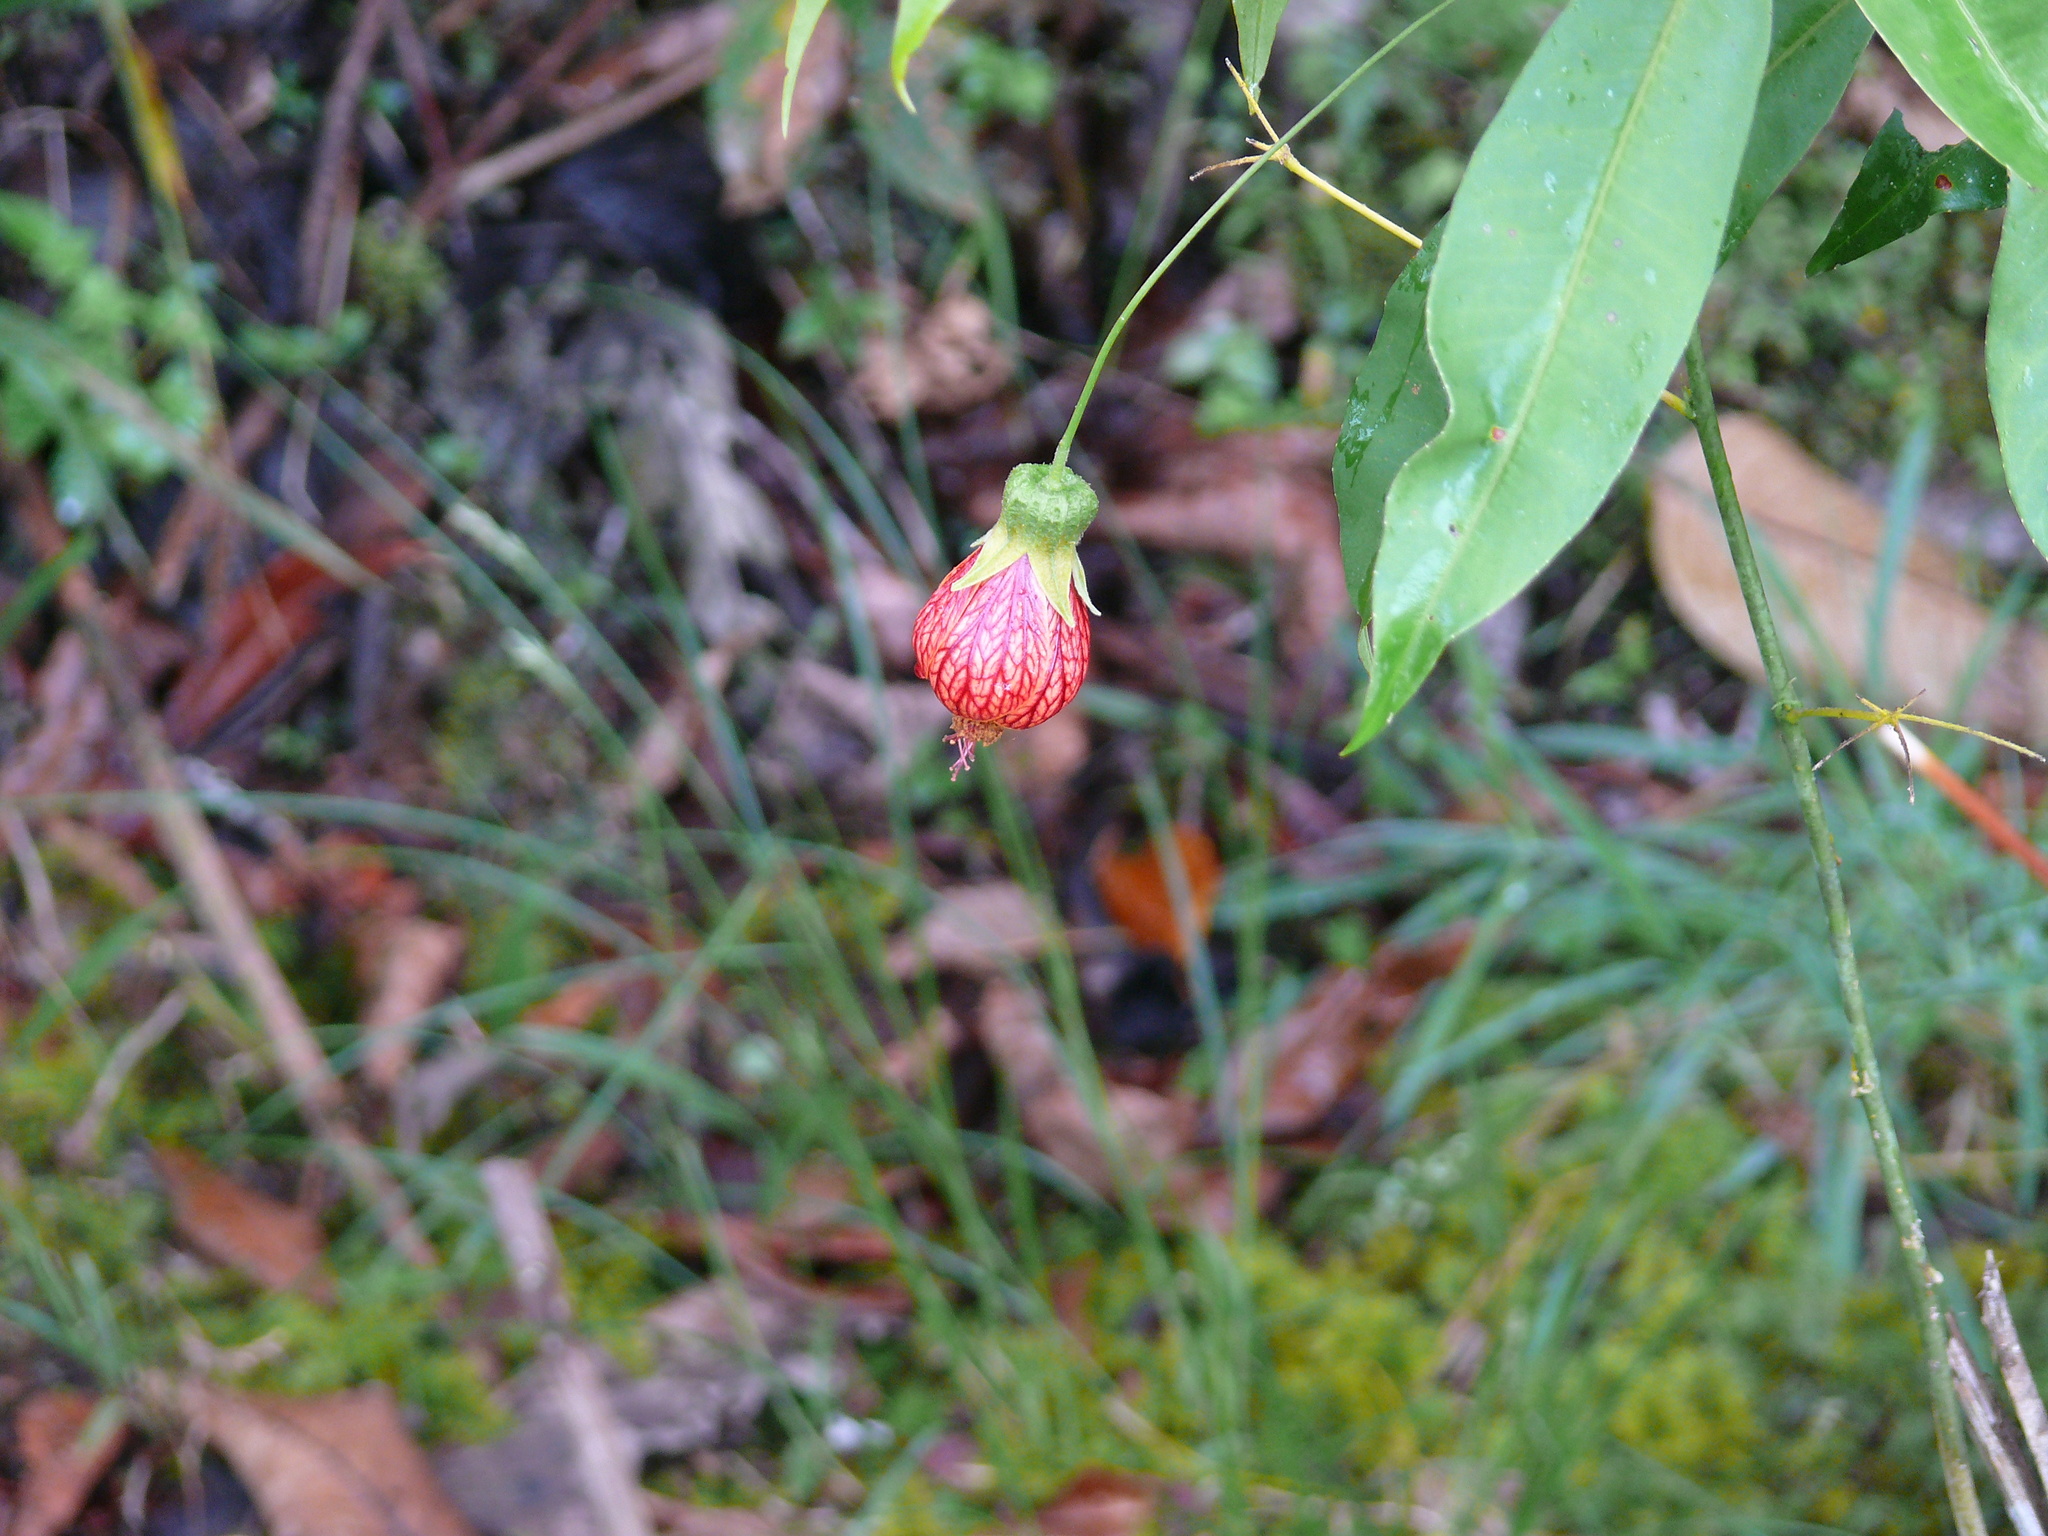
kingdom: Plantae
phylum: Tracheophyta
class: Magnoliopsida
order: Malvales
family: Malvaceae
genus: Callianthe
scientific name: Callianthe picta
